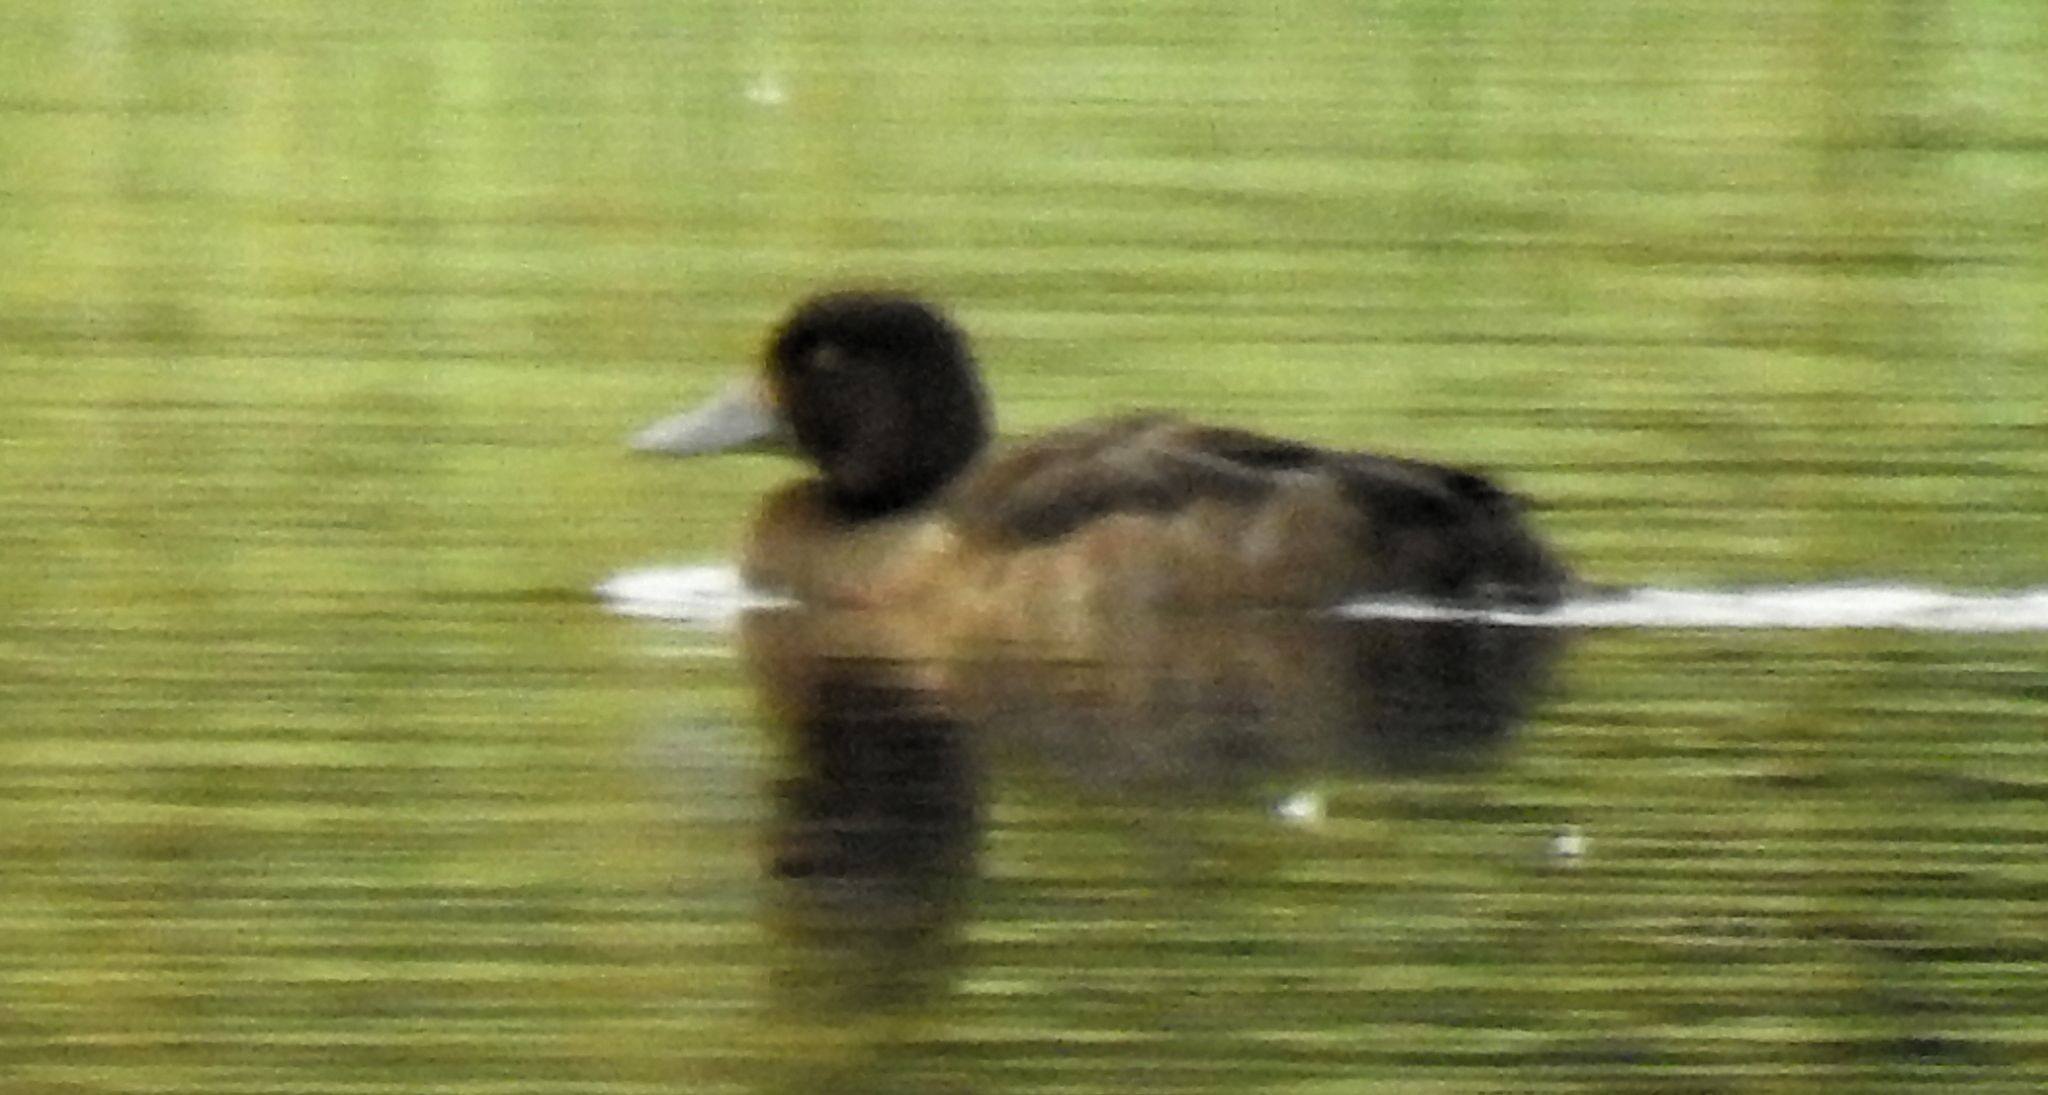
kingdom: Animalia
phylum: Chordata
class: Aves
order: Anseriformes
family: Anatidae
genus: Aythya
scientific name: Aythya fuligula
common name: Tufted duck
